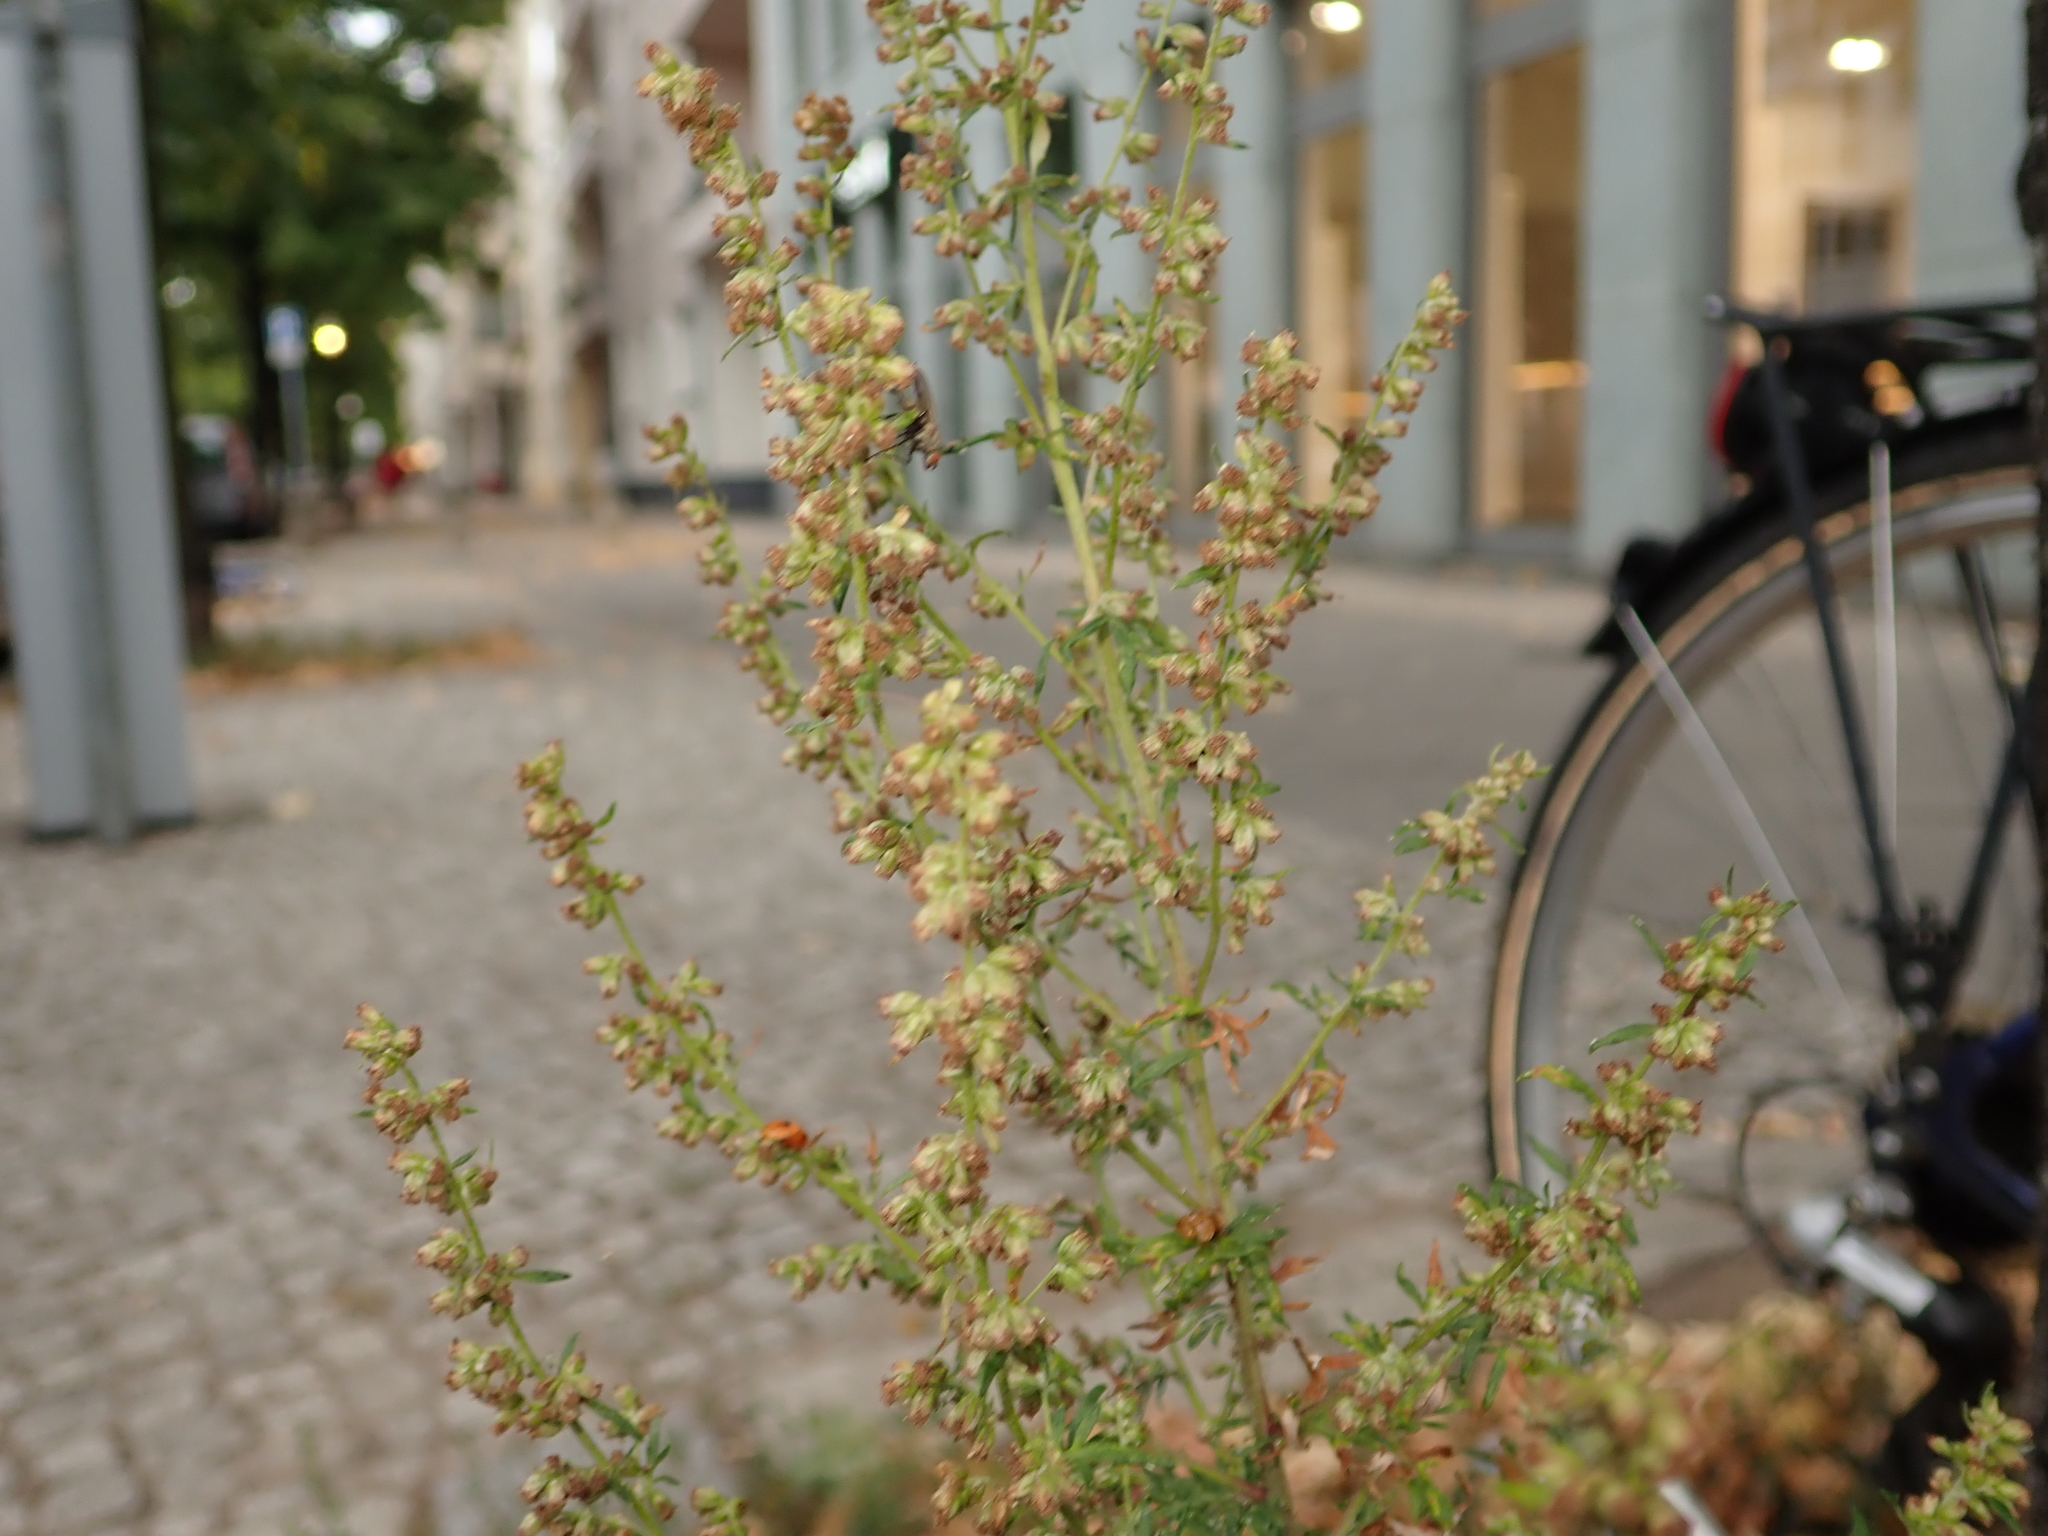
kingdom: Plantae
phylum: Tracheophyta
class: Magnoliopsida
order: Asterales
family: Asteraceae
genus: Artemisia
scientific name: Artemisia vulgaris
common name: Mugwort
